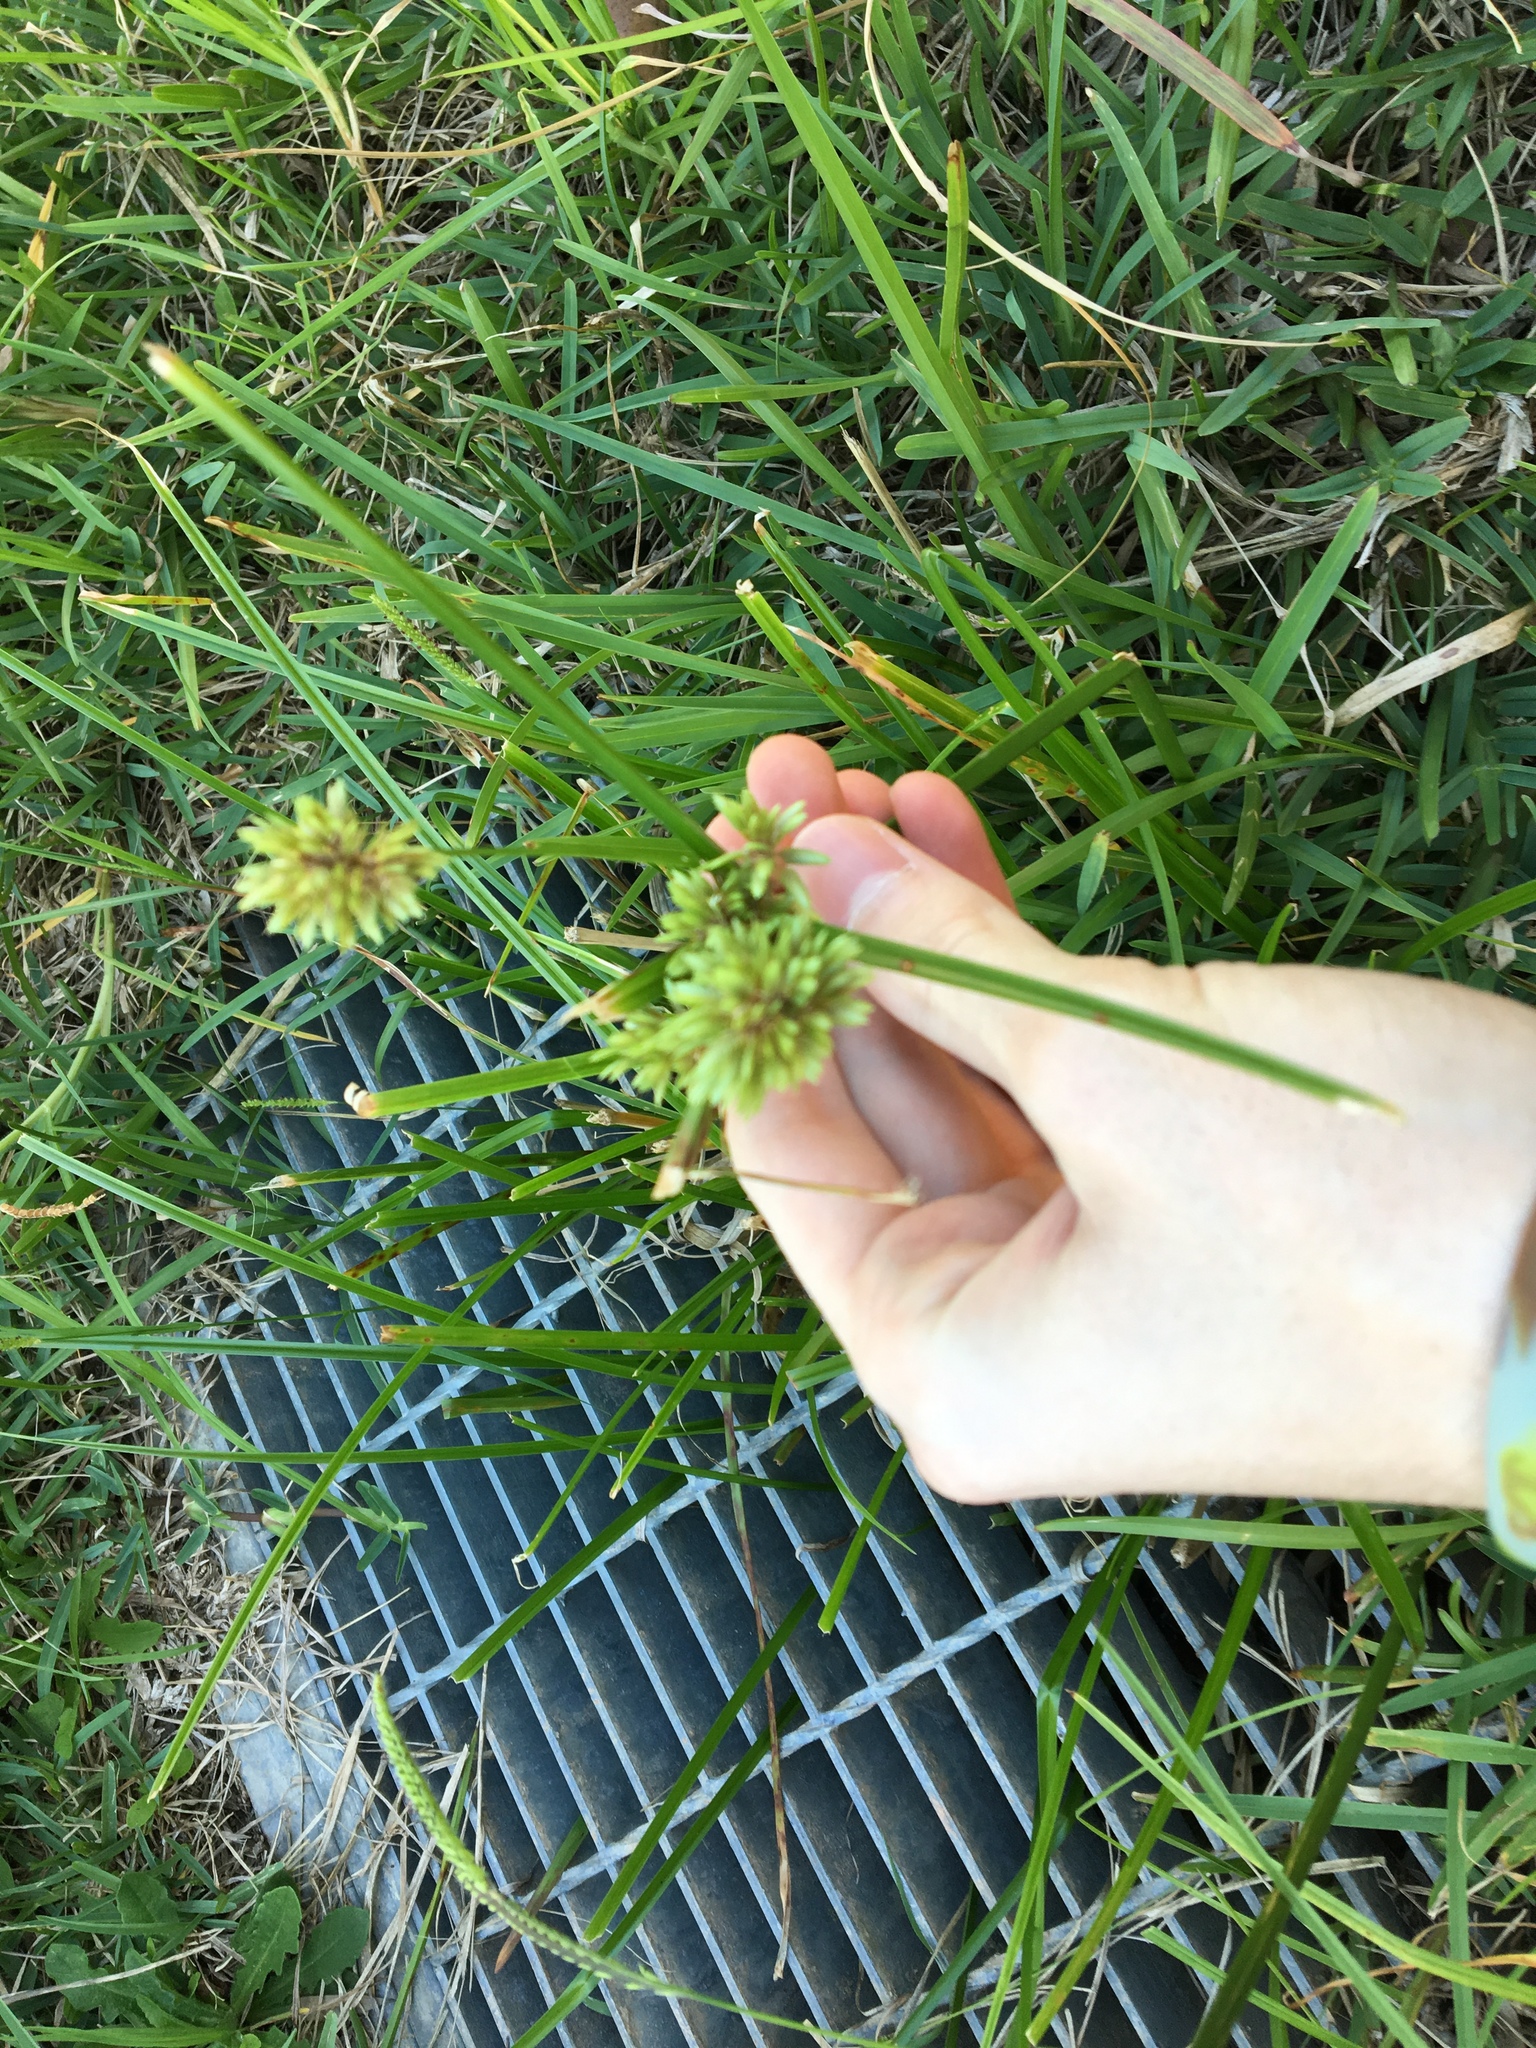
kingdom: Plantae
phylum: Tracheophyta
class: Liliopsida
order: Poales
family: Cyperaceae
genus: Cyperus
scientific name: Cyperus eragrostis
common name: Tall flatsedge
